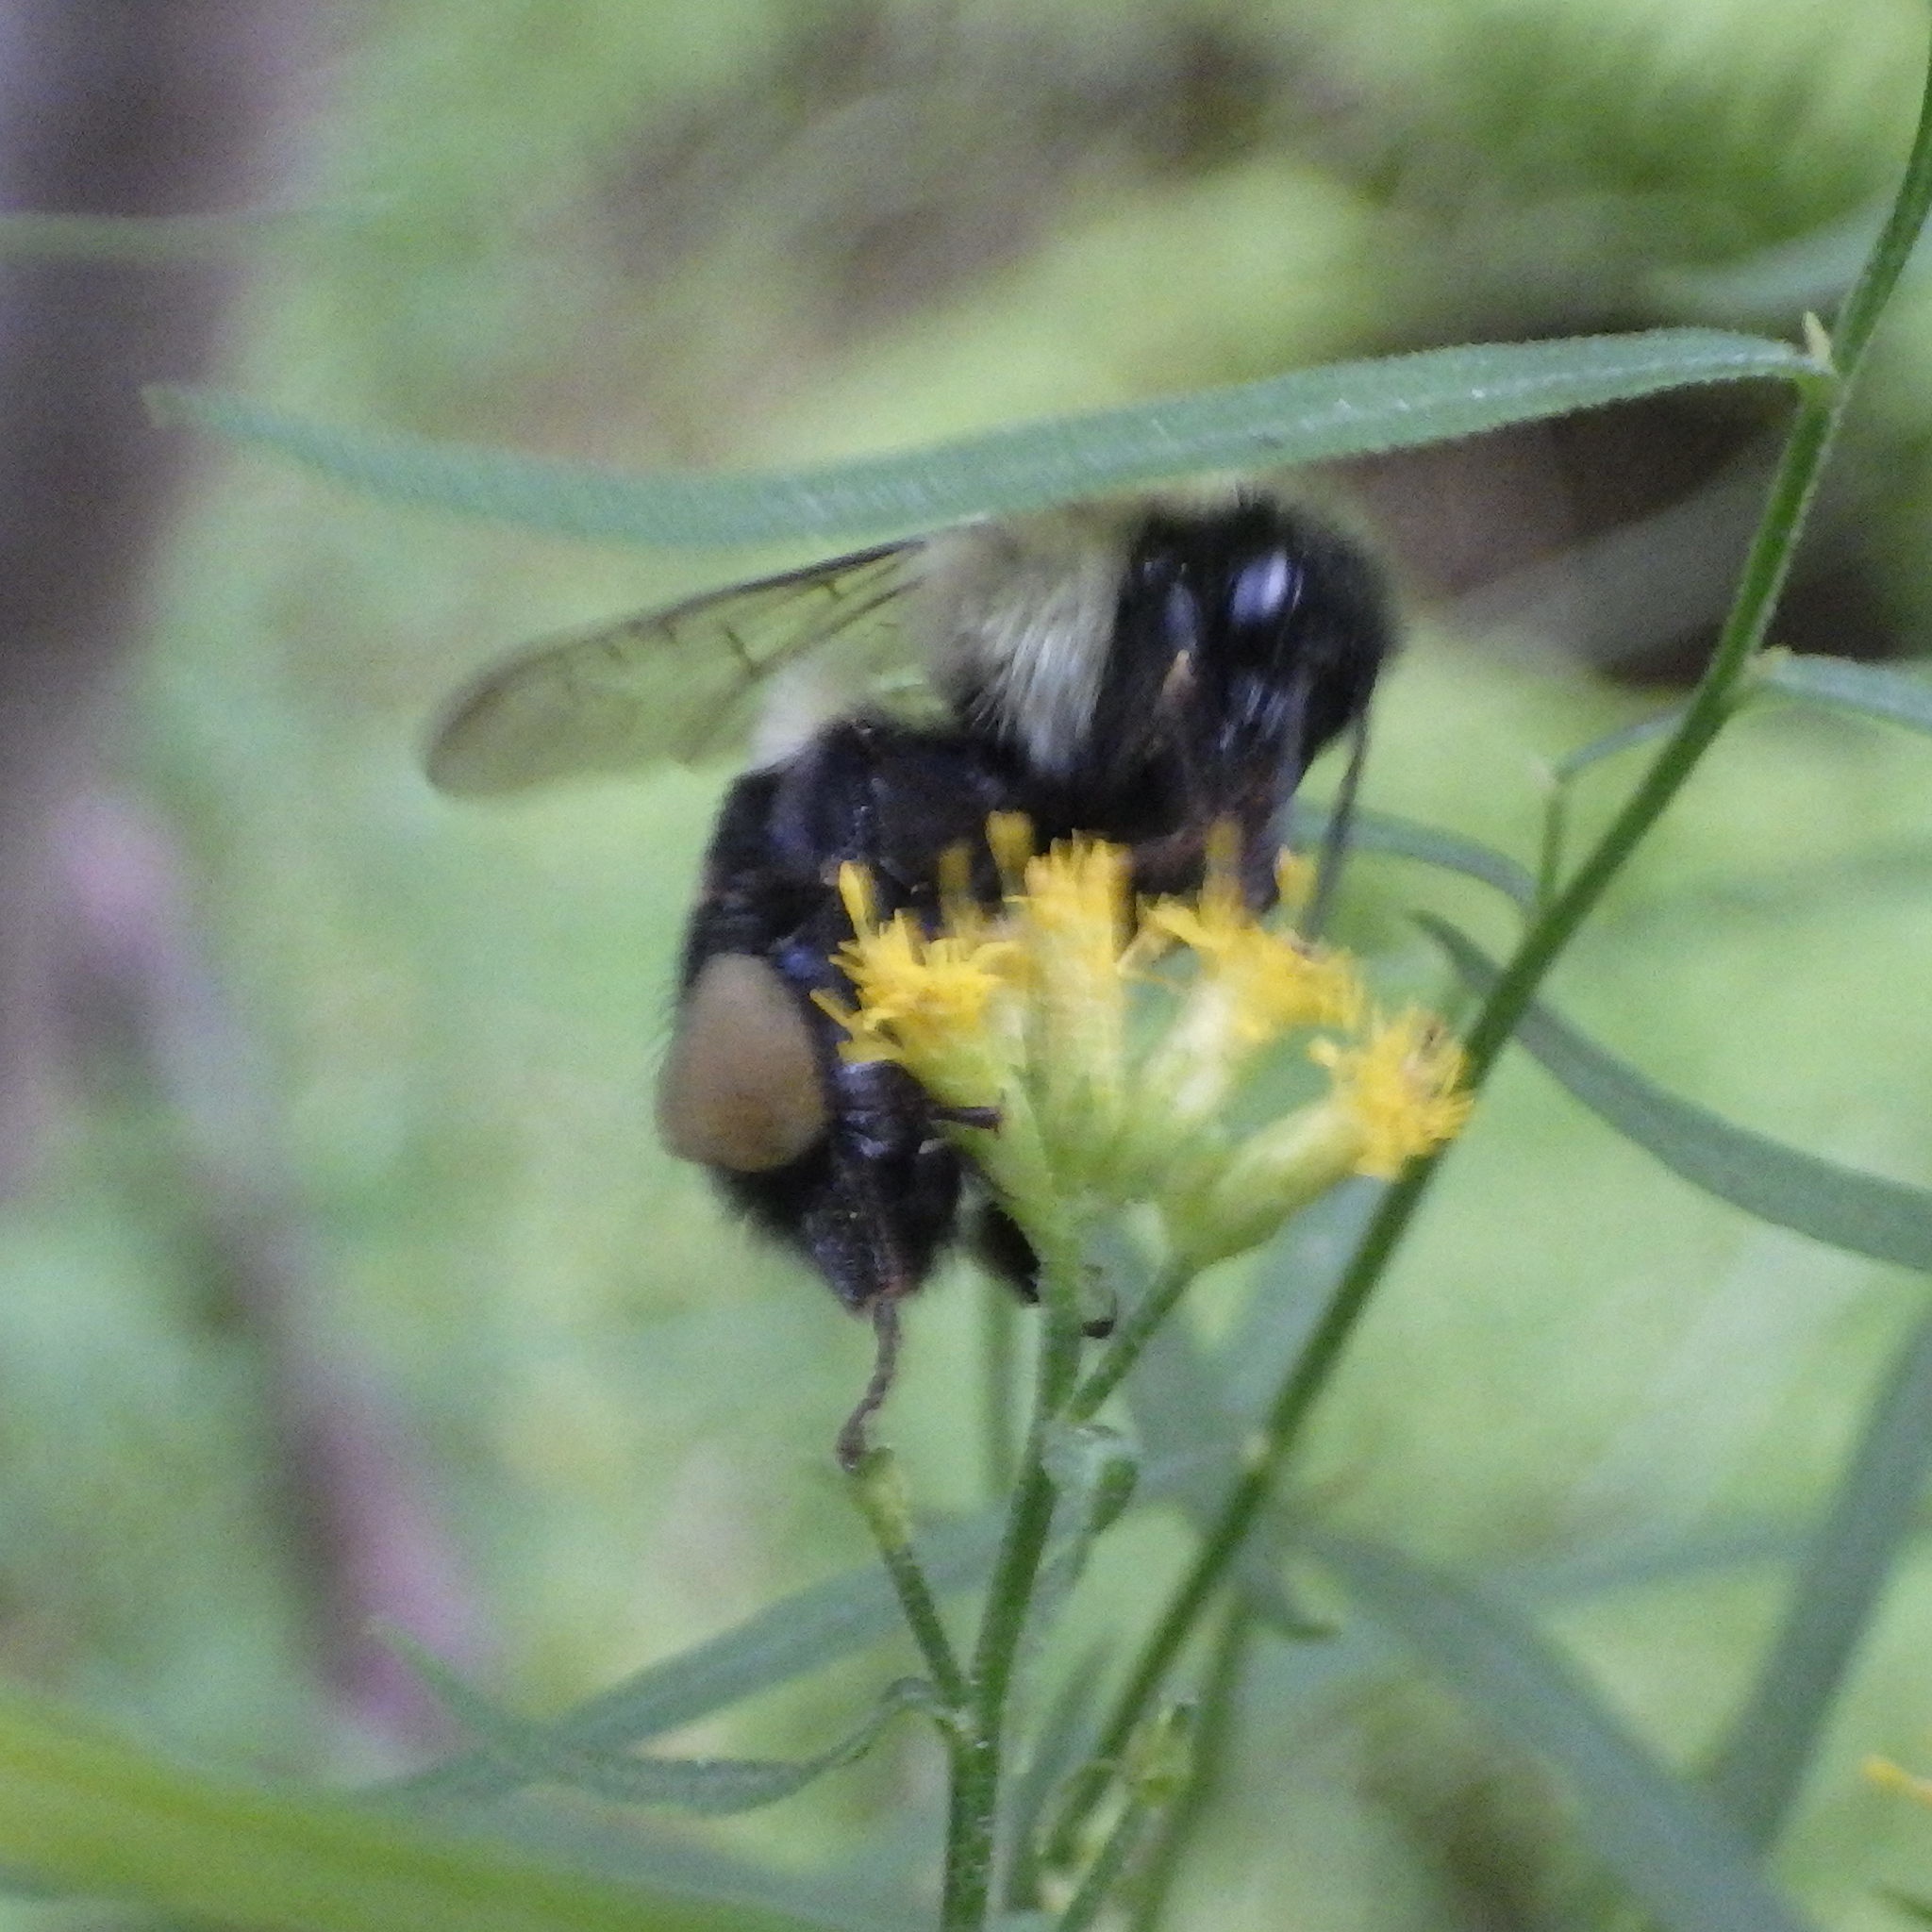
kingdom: Animalia
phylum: Arthropoda
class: Insecta
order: Hymenoptera
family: Apidae
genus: Bombus
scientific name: Bombus impatiens
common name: Common eastern bumble bee
